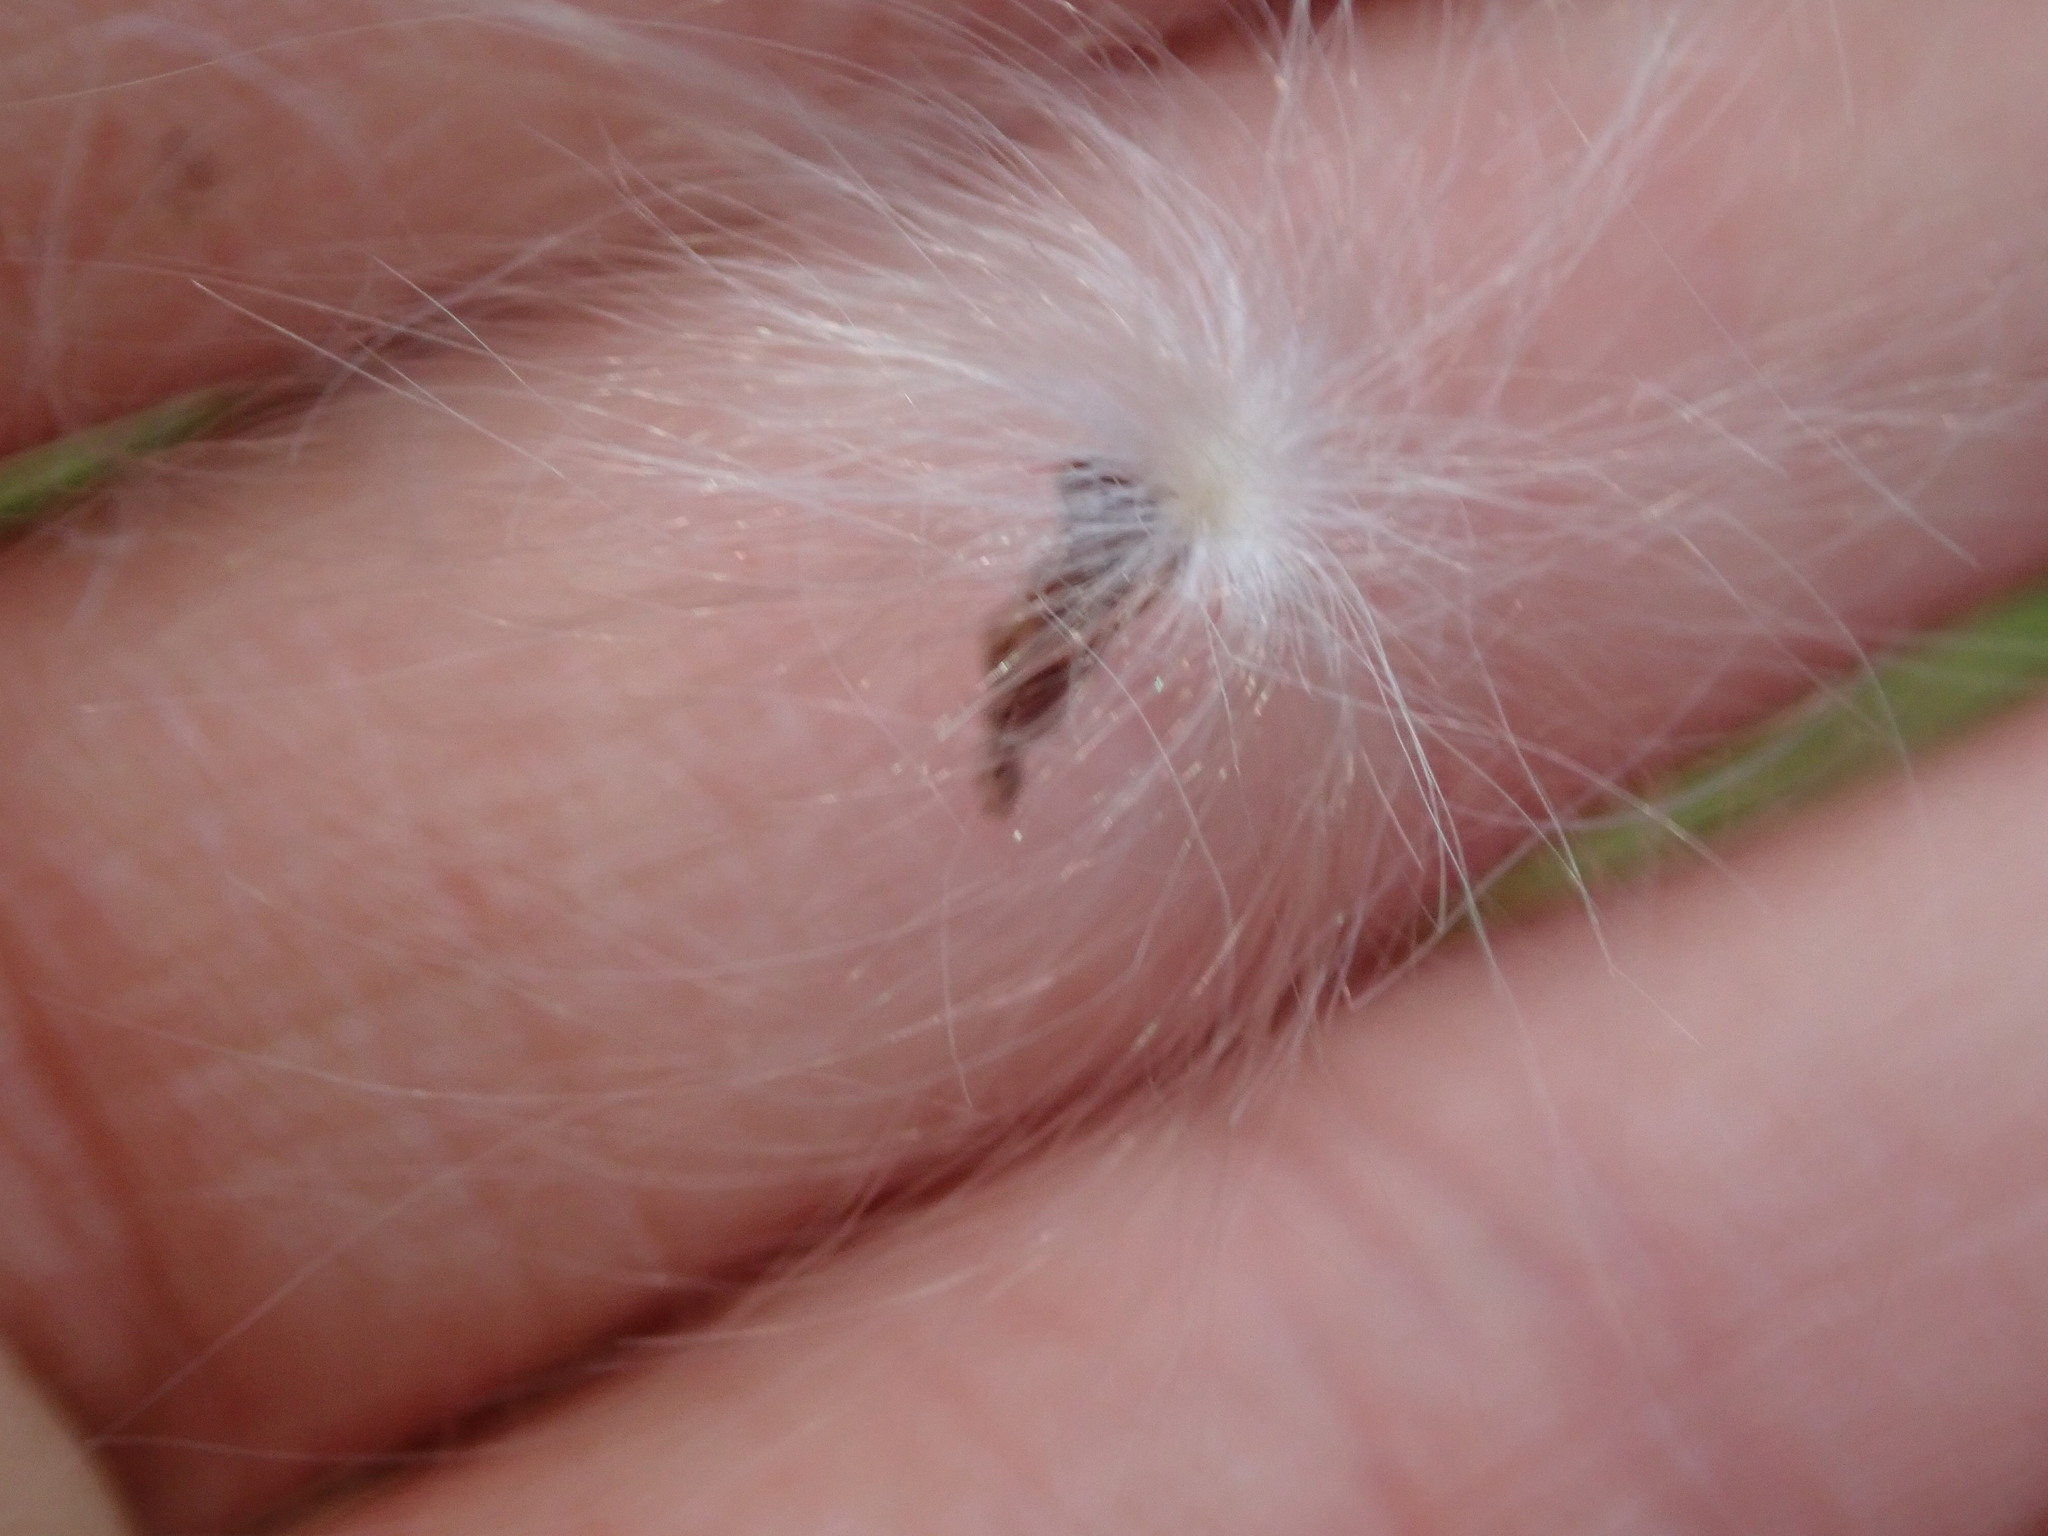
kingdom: Plantae
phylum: Tracheophyta
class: Magnoliopsida
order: Gentianales
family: Apocynaceae
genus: Asclepias
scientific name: Asclepias
